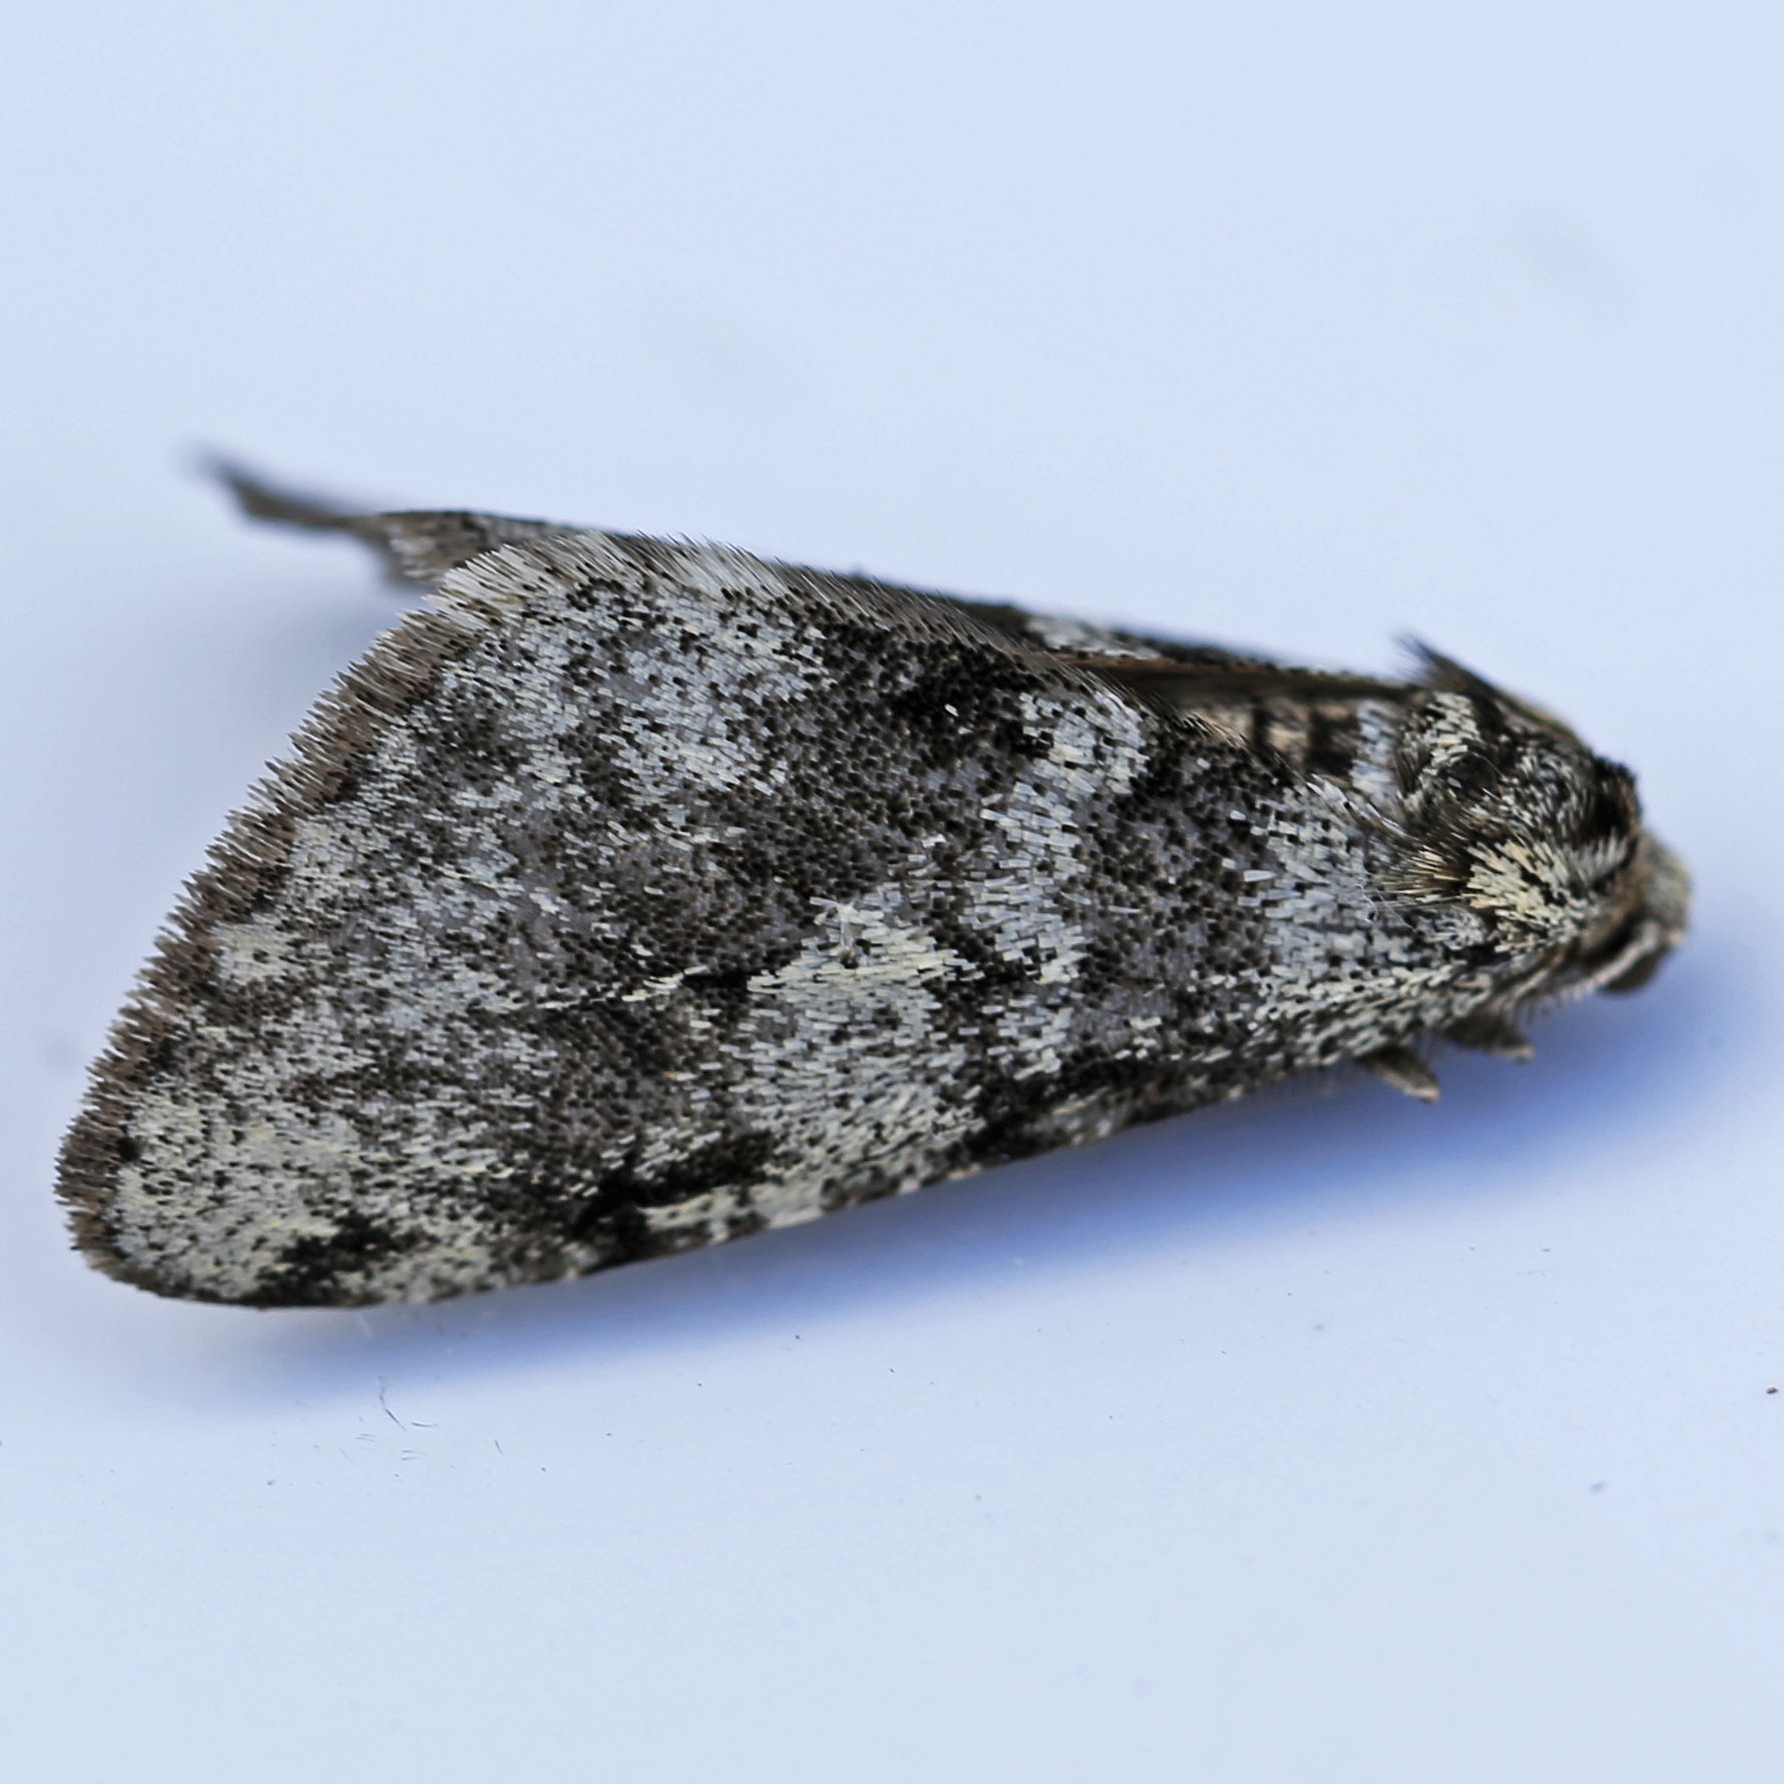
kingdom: Animalia
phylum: Arthropoda
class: Insecta
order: Lepidoptera
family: Geometridae
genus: Phigalia
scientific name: Phigalia strigataria
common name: Small phigalia
